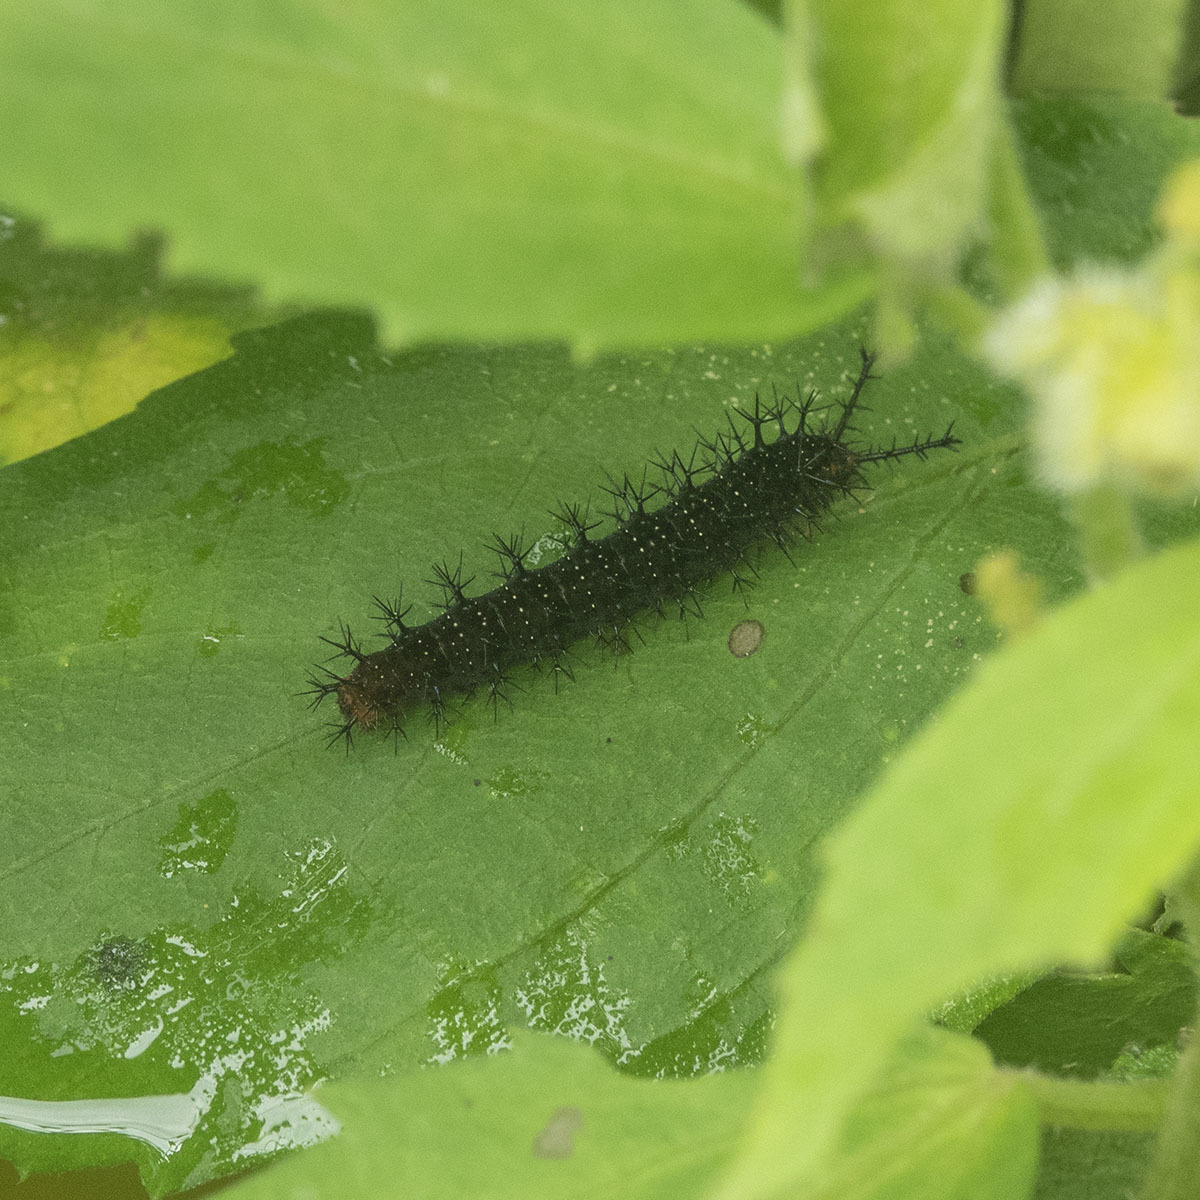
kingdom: Animalia
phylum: Arthropoda
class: Insecta
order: Lepidoptera
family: Nymphalidae
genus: Ariadne
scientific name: Ariadne ariadne
